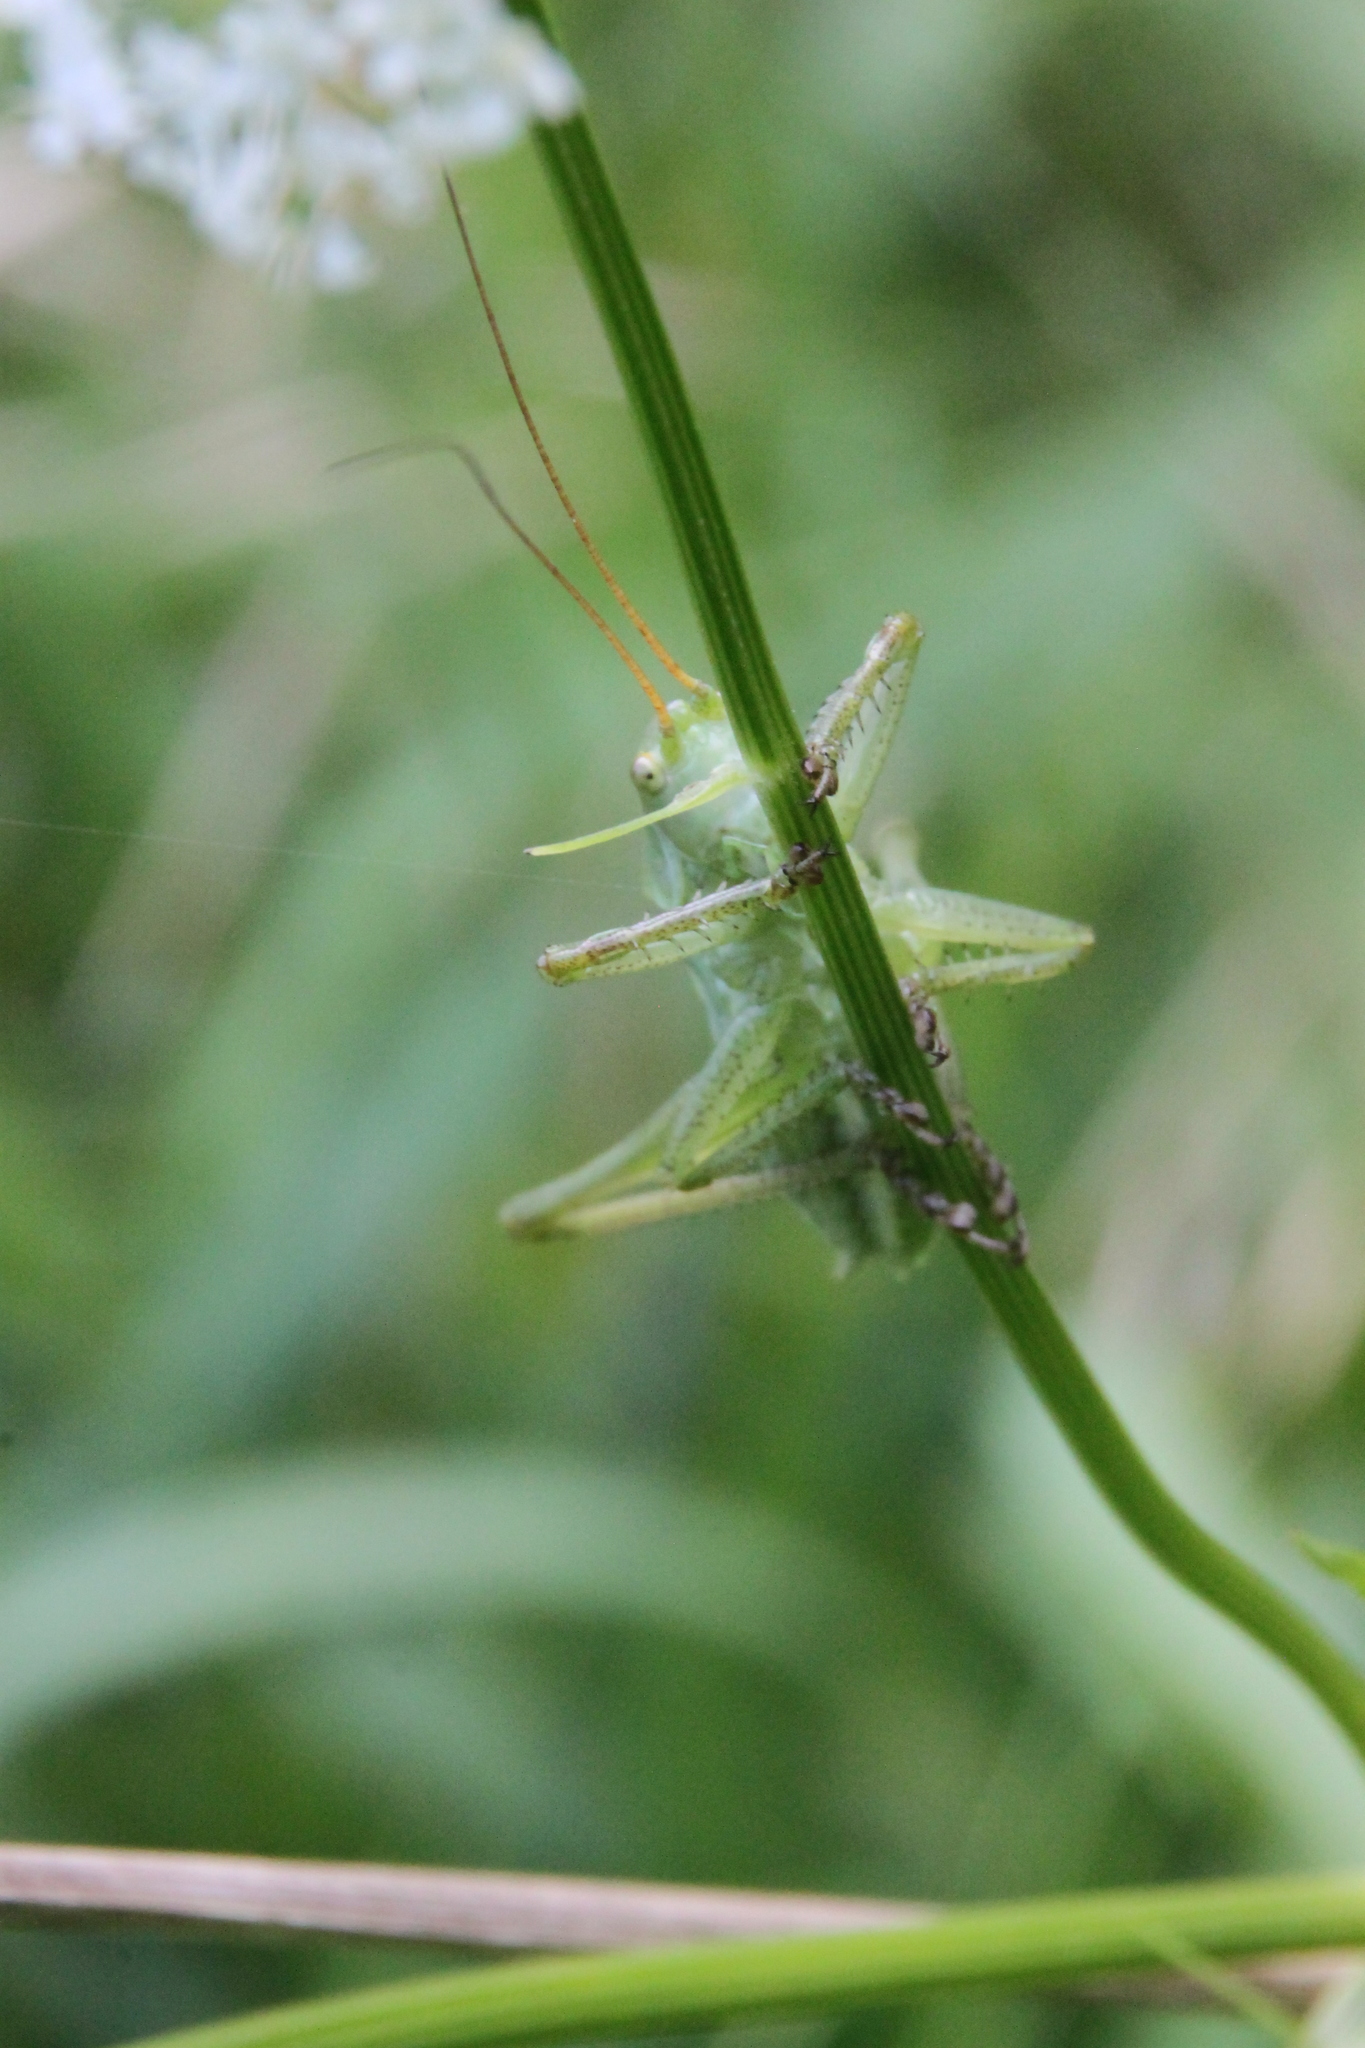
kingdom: Animalia
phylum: Arthropoda
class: Insecta
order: Orthoptera
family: Tettigoniidae
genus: Tettigonia
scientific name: Tettigonia cantans
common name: Upland green bush-cricket
